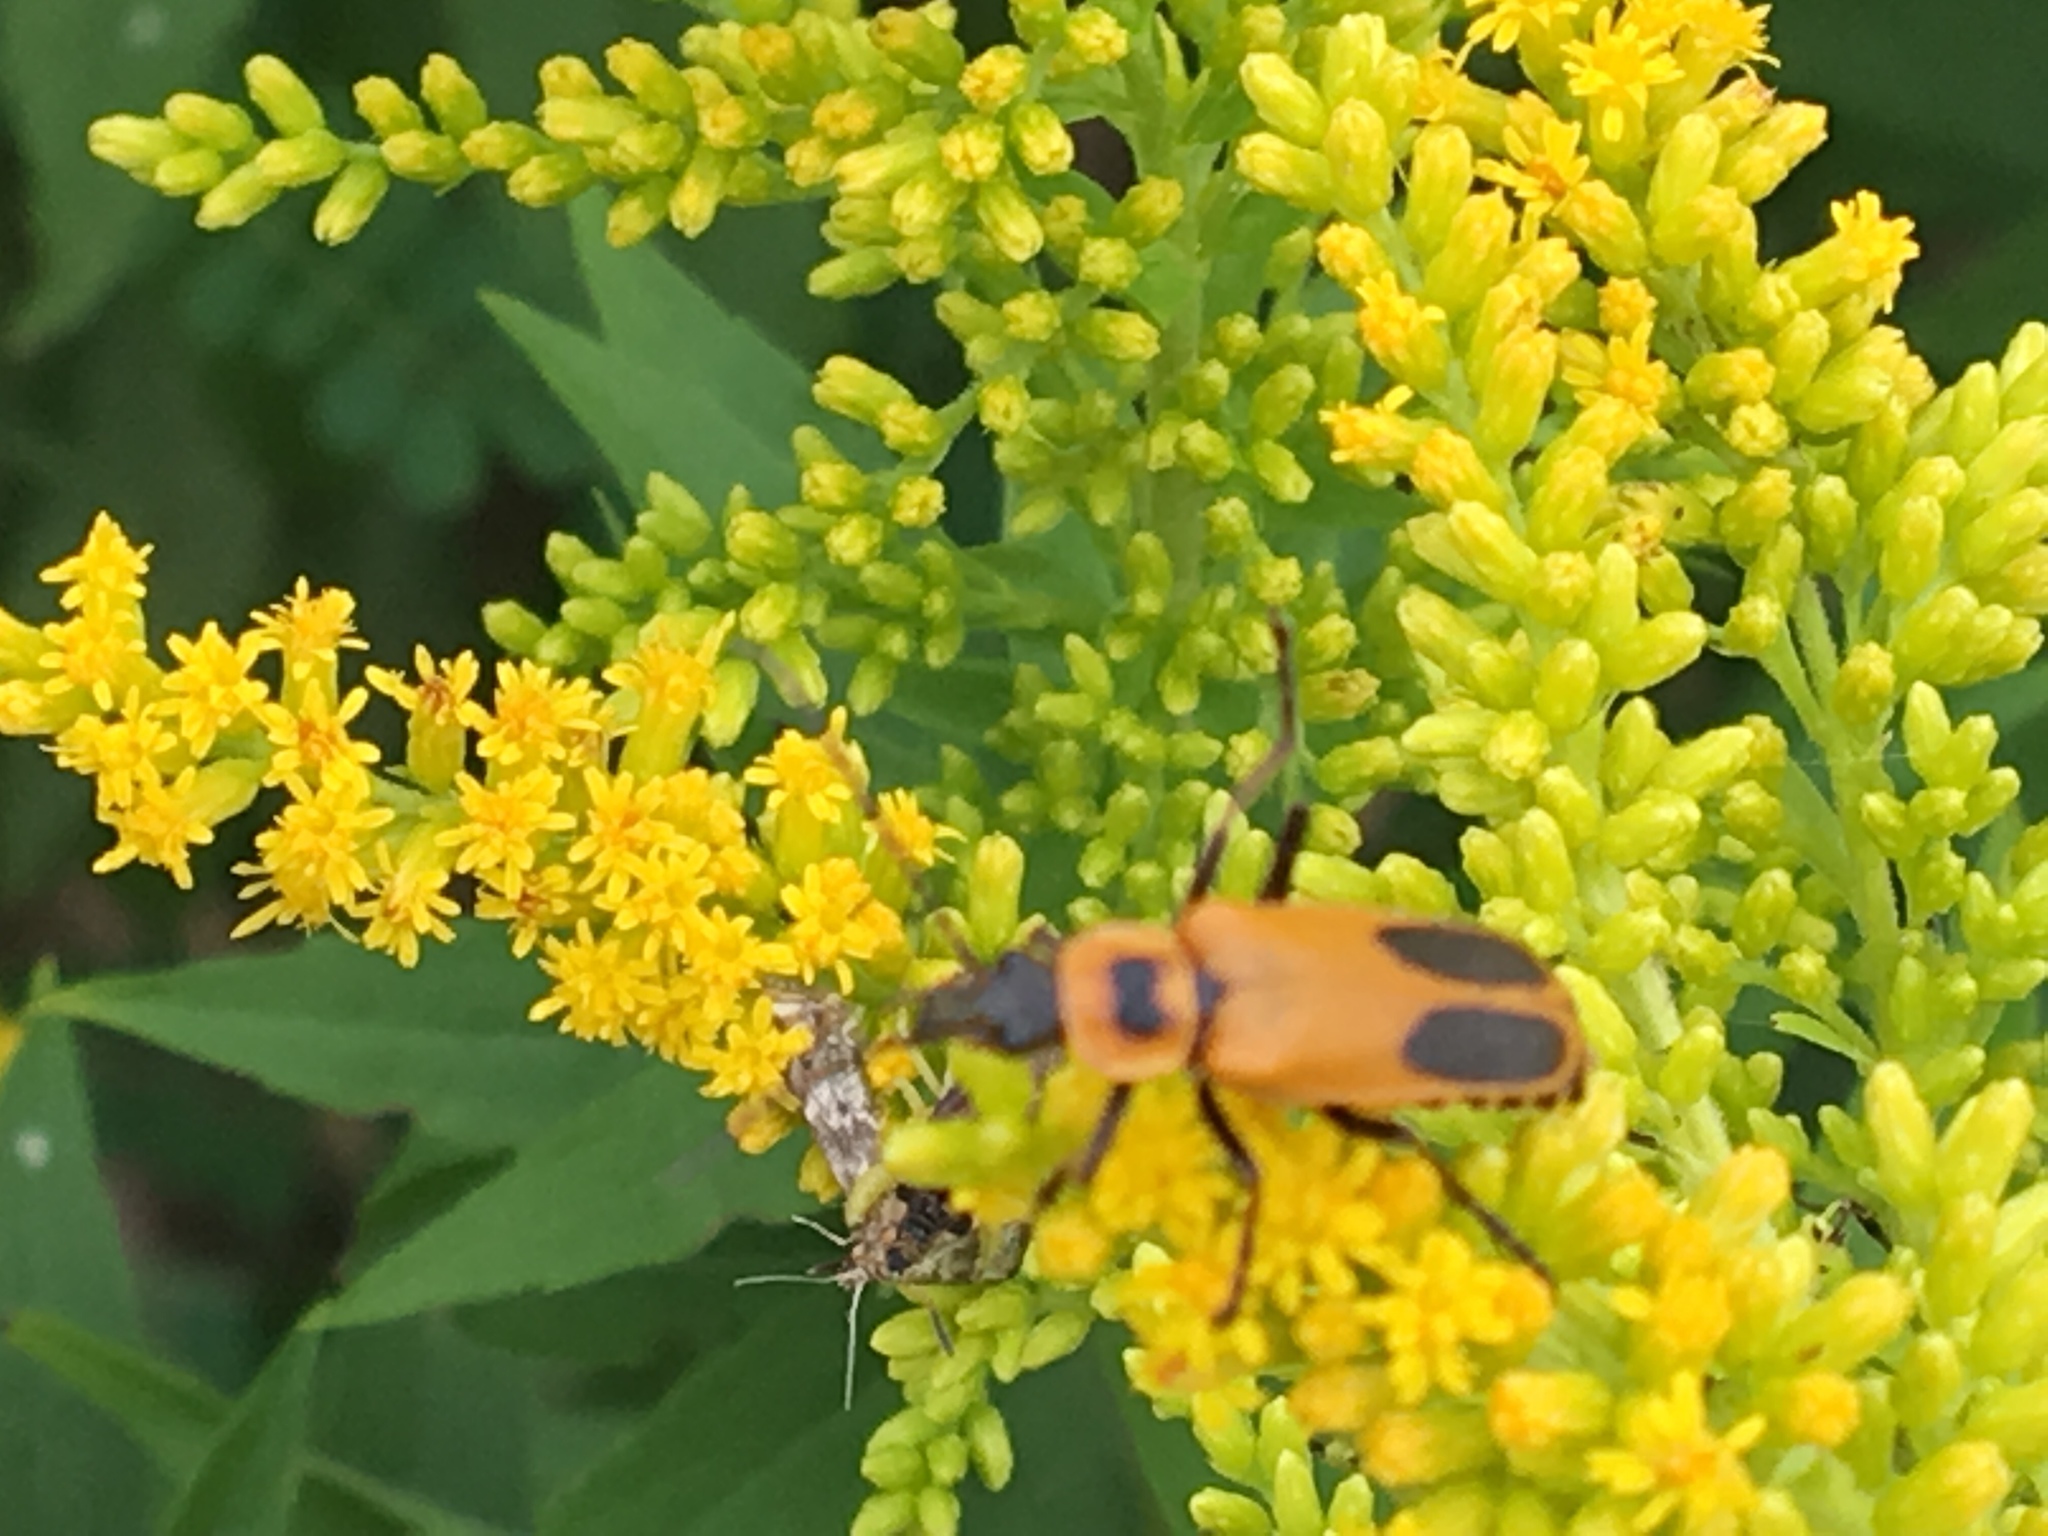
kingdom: Animalia
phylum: Arthropoda
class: Insecta
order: Coleoptera
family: Cantharidae
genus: Chauliognathus
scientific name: Chauliognathus pensylvanicus
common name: Goldenrod soldier beetle
